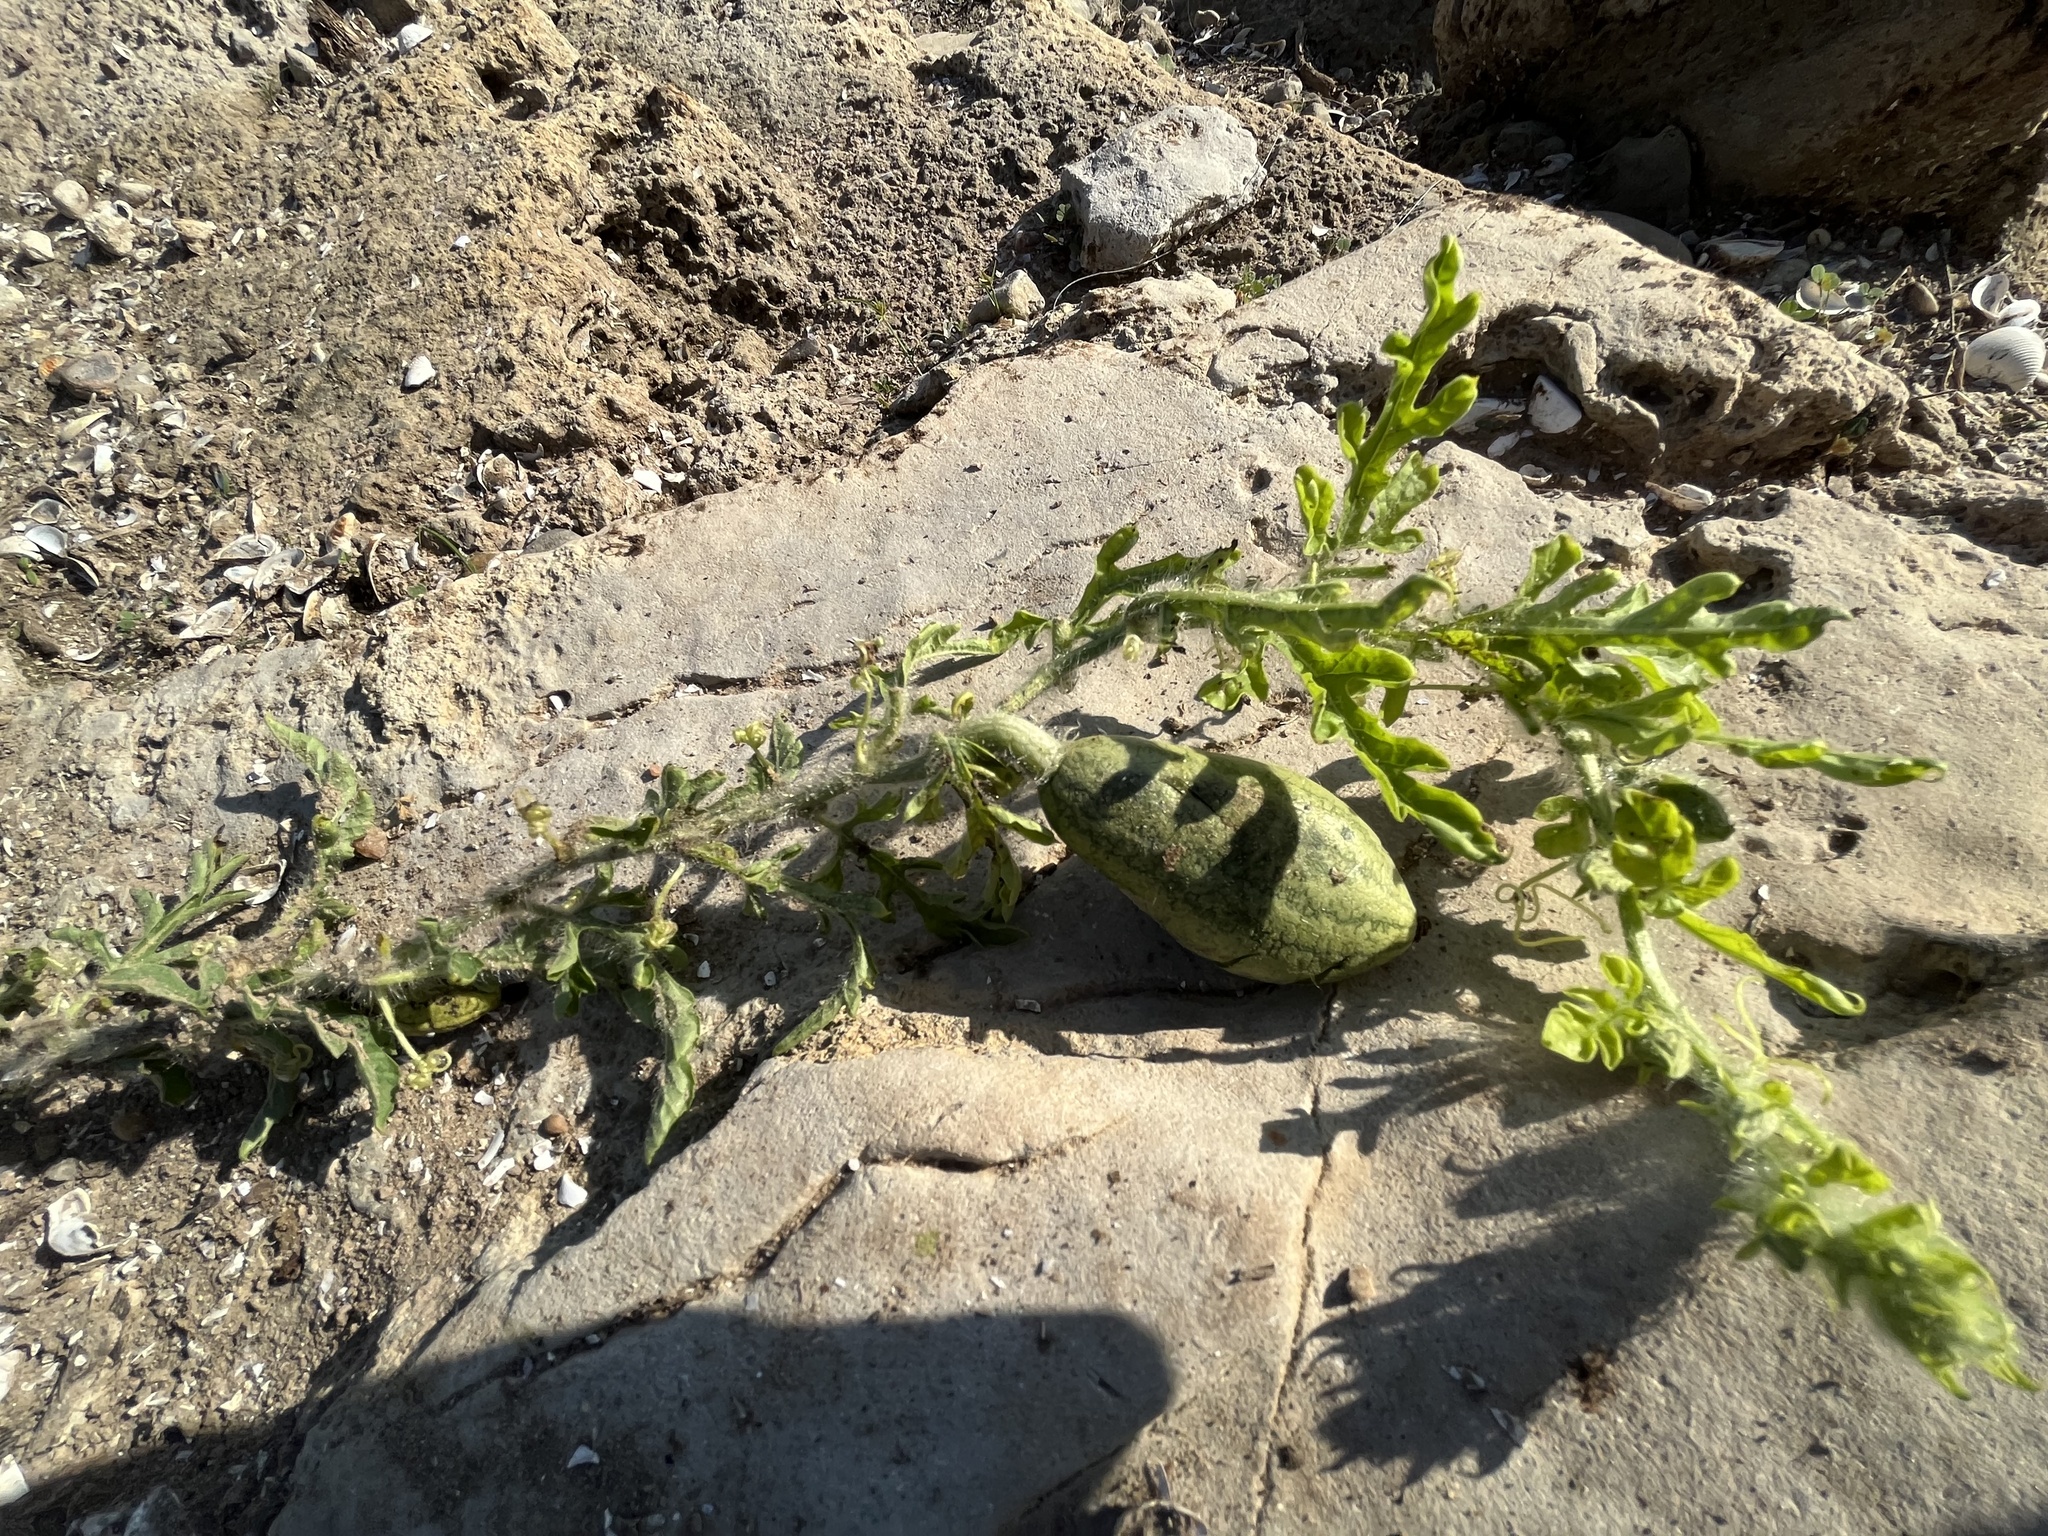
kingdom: Plantae
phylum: Tracheophyta
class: Magnoliopsida
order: Cucurbitales
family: Cucurbitaceae
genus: Citrullus
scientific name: Citrullus lanatus
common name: Watermelon
